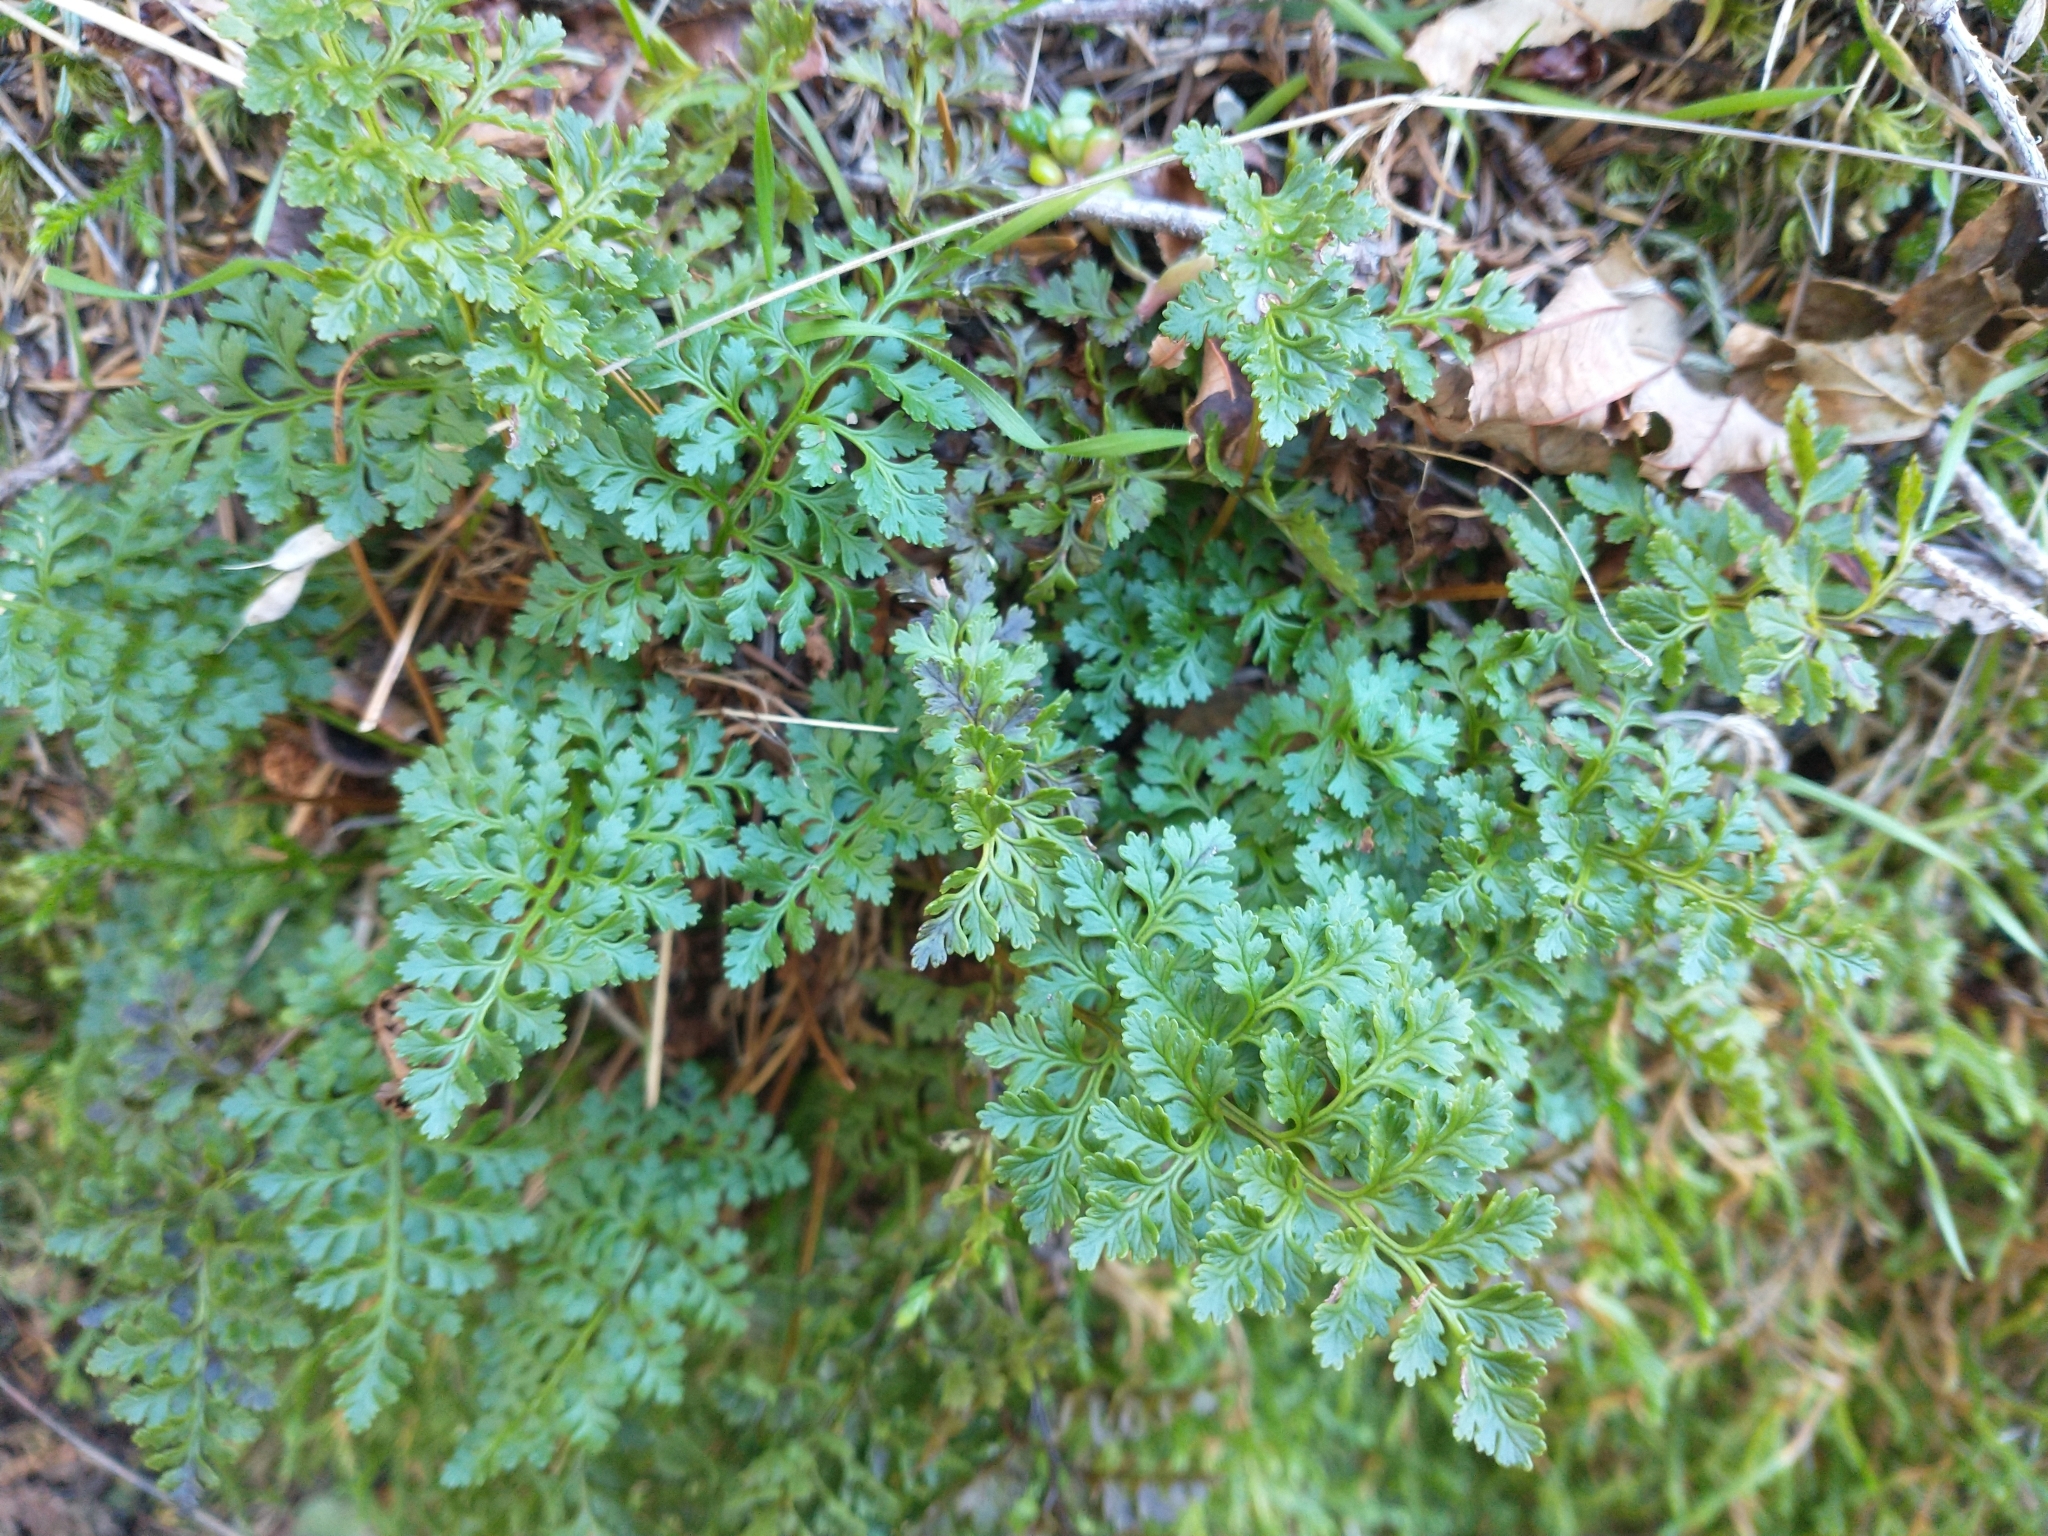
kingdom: Plantae
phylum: Tracheophyta
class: Polypodiopsida
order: Polypodiales
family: Pteridaceae
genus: Cryptogramma
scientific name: Cryptogramma acrostichoides
